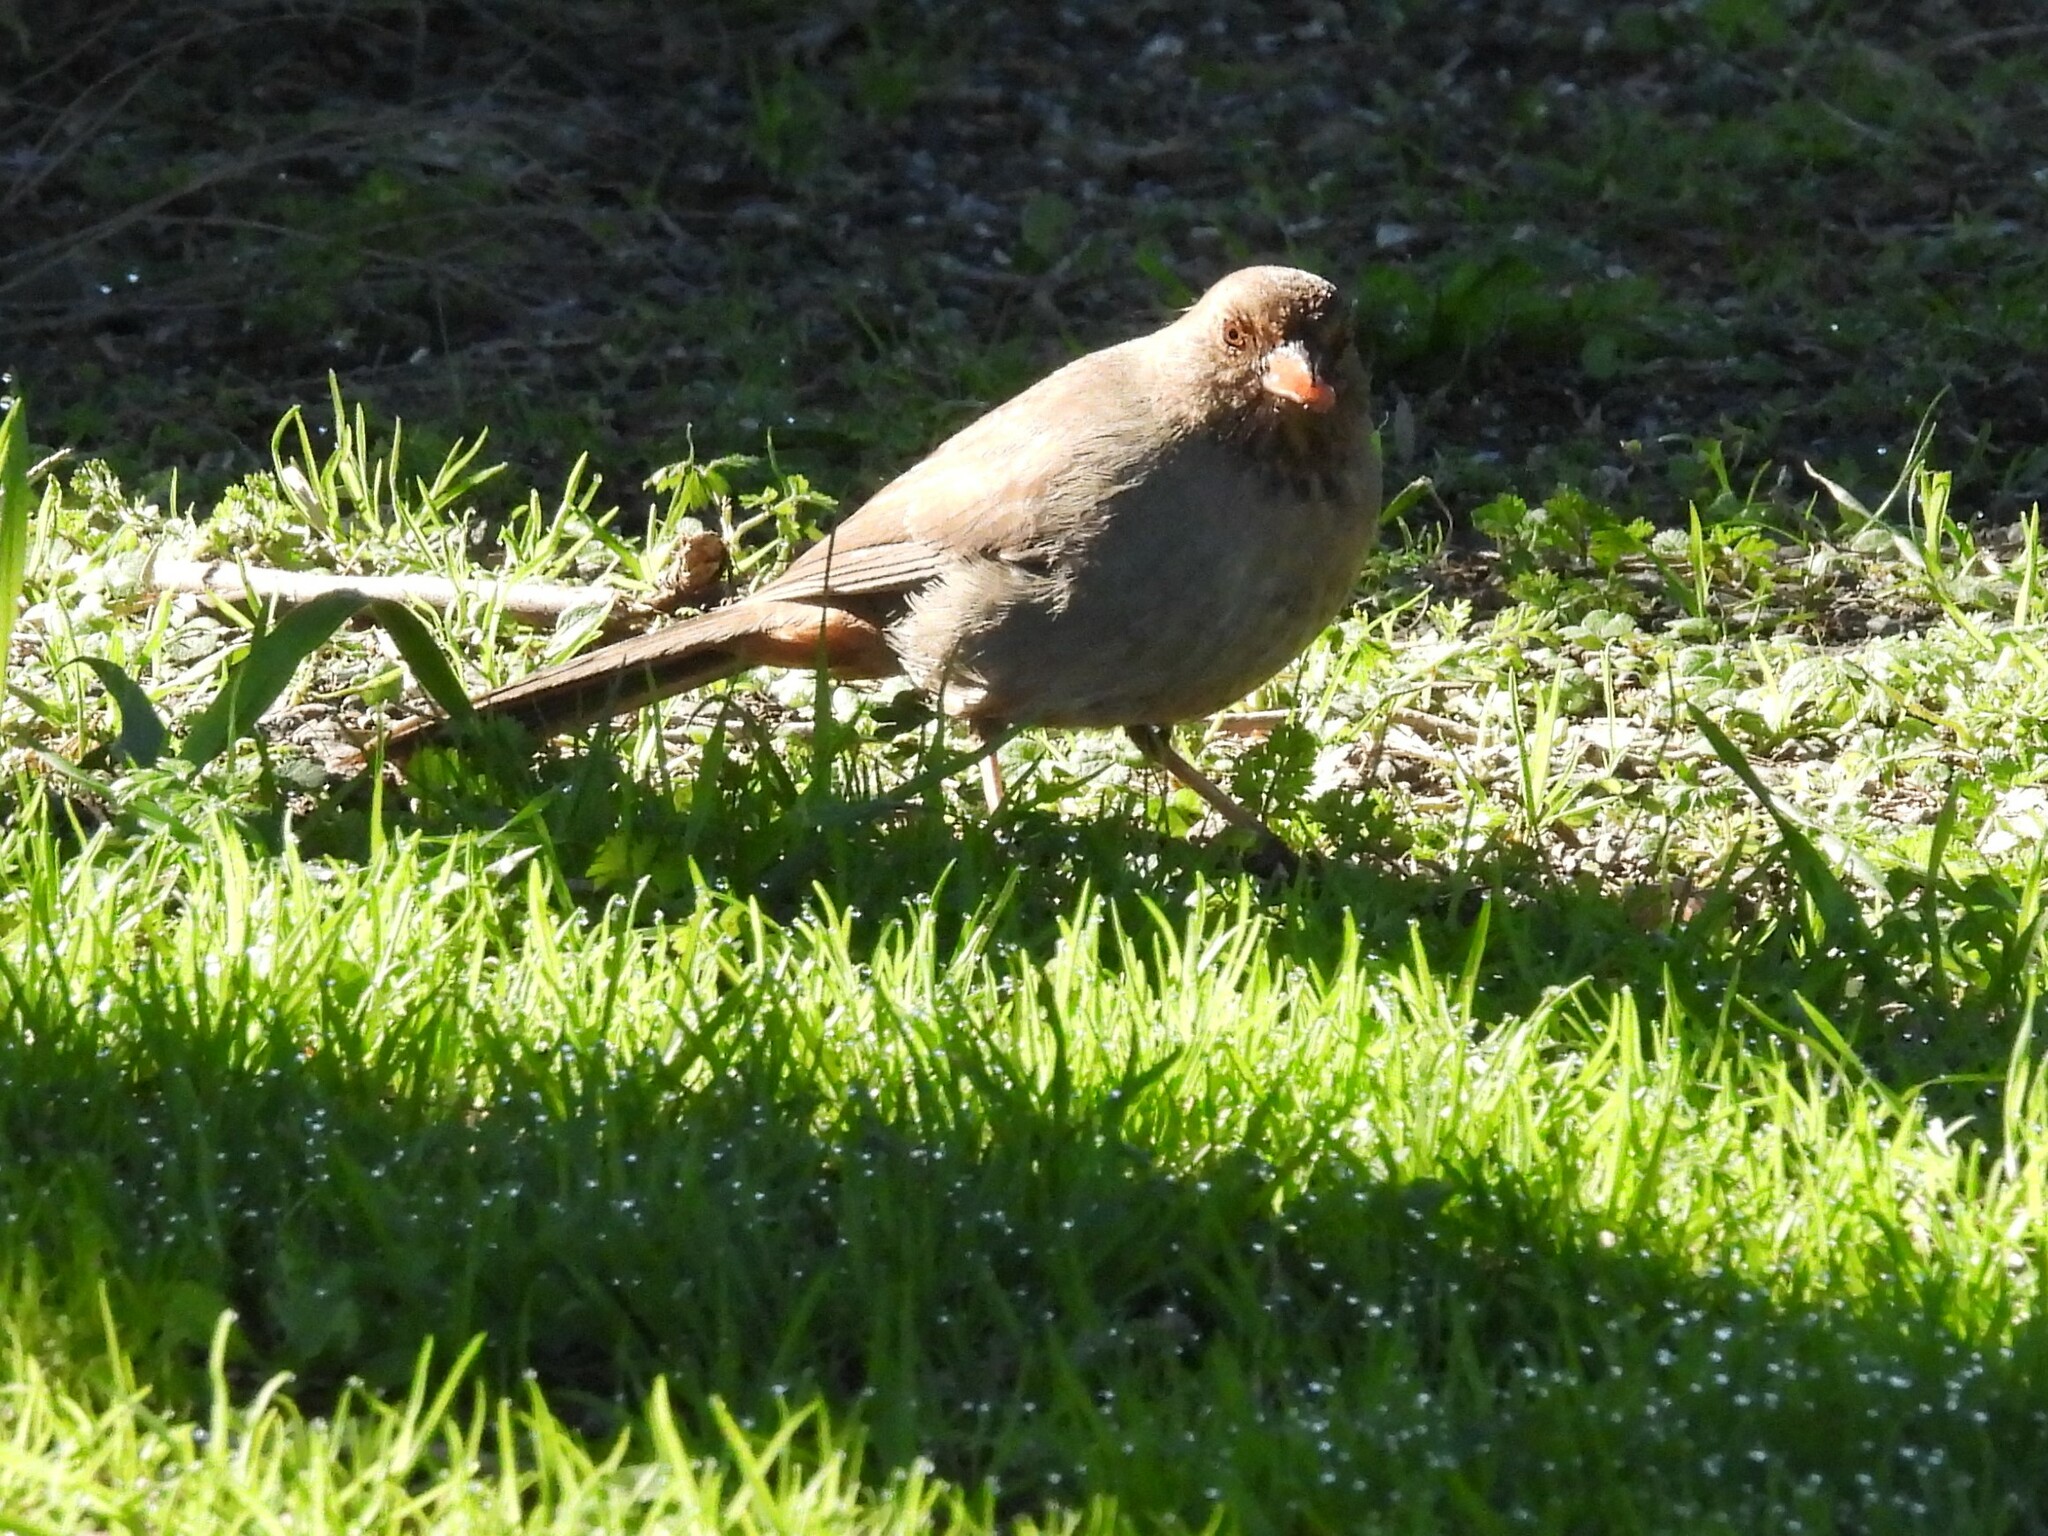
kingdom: Animalia
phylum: Chordata
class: Aves
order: Passeriformes
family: Passerellidae
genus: Melozone
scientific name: Melozone crissalis
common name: California towhee
